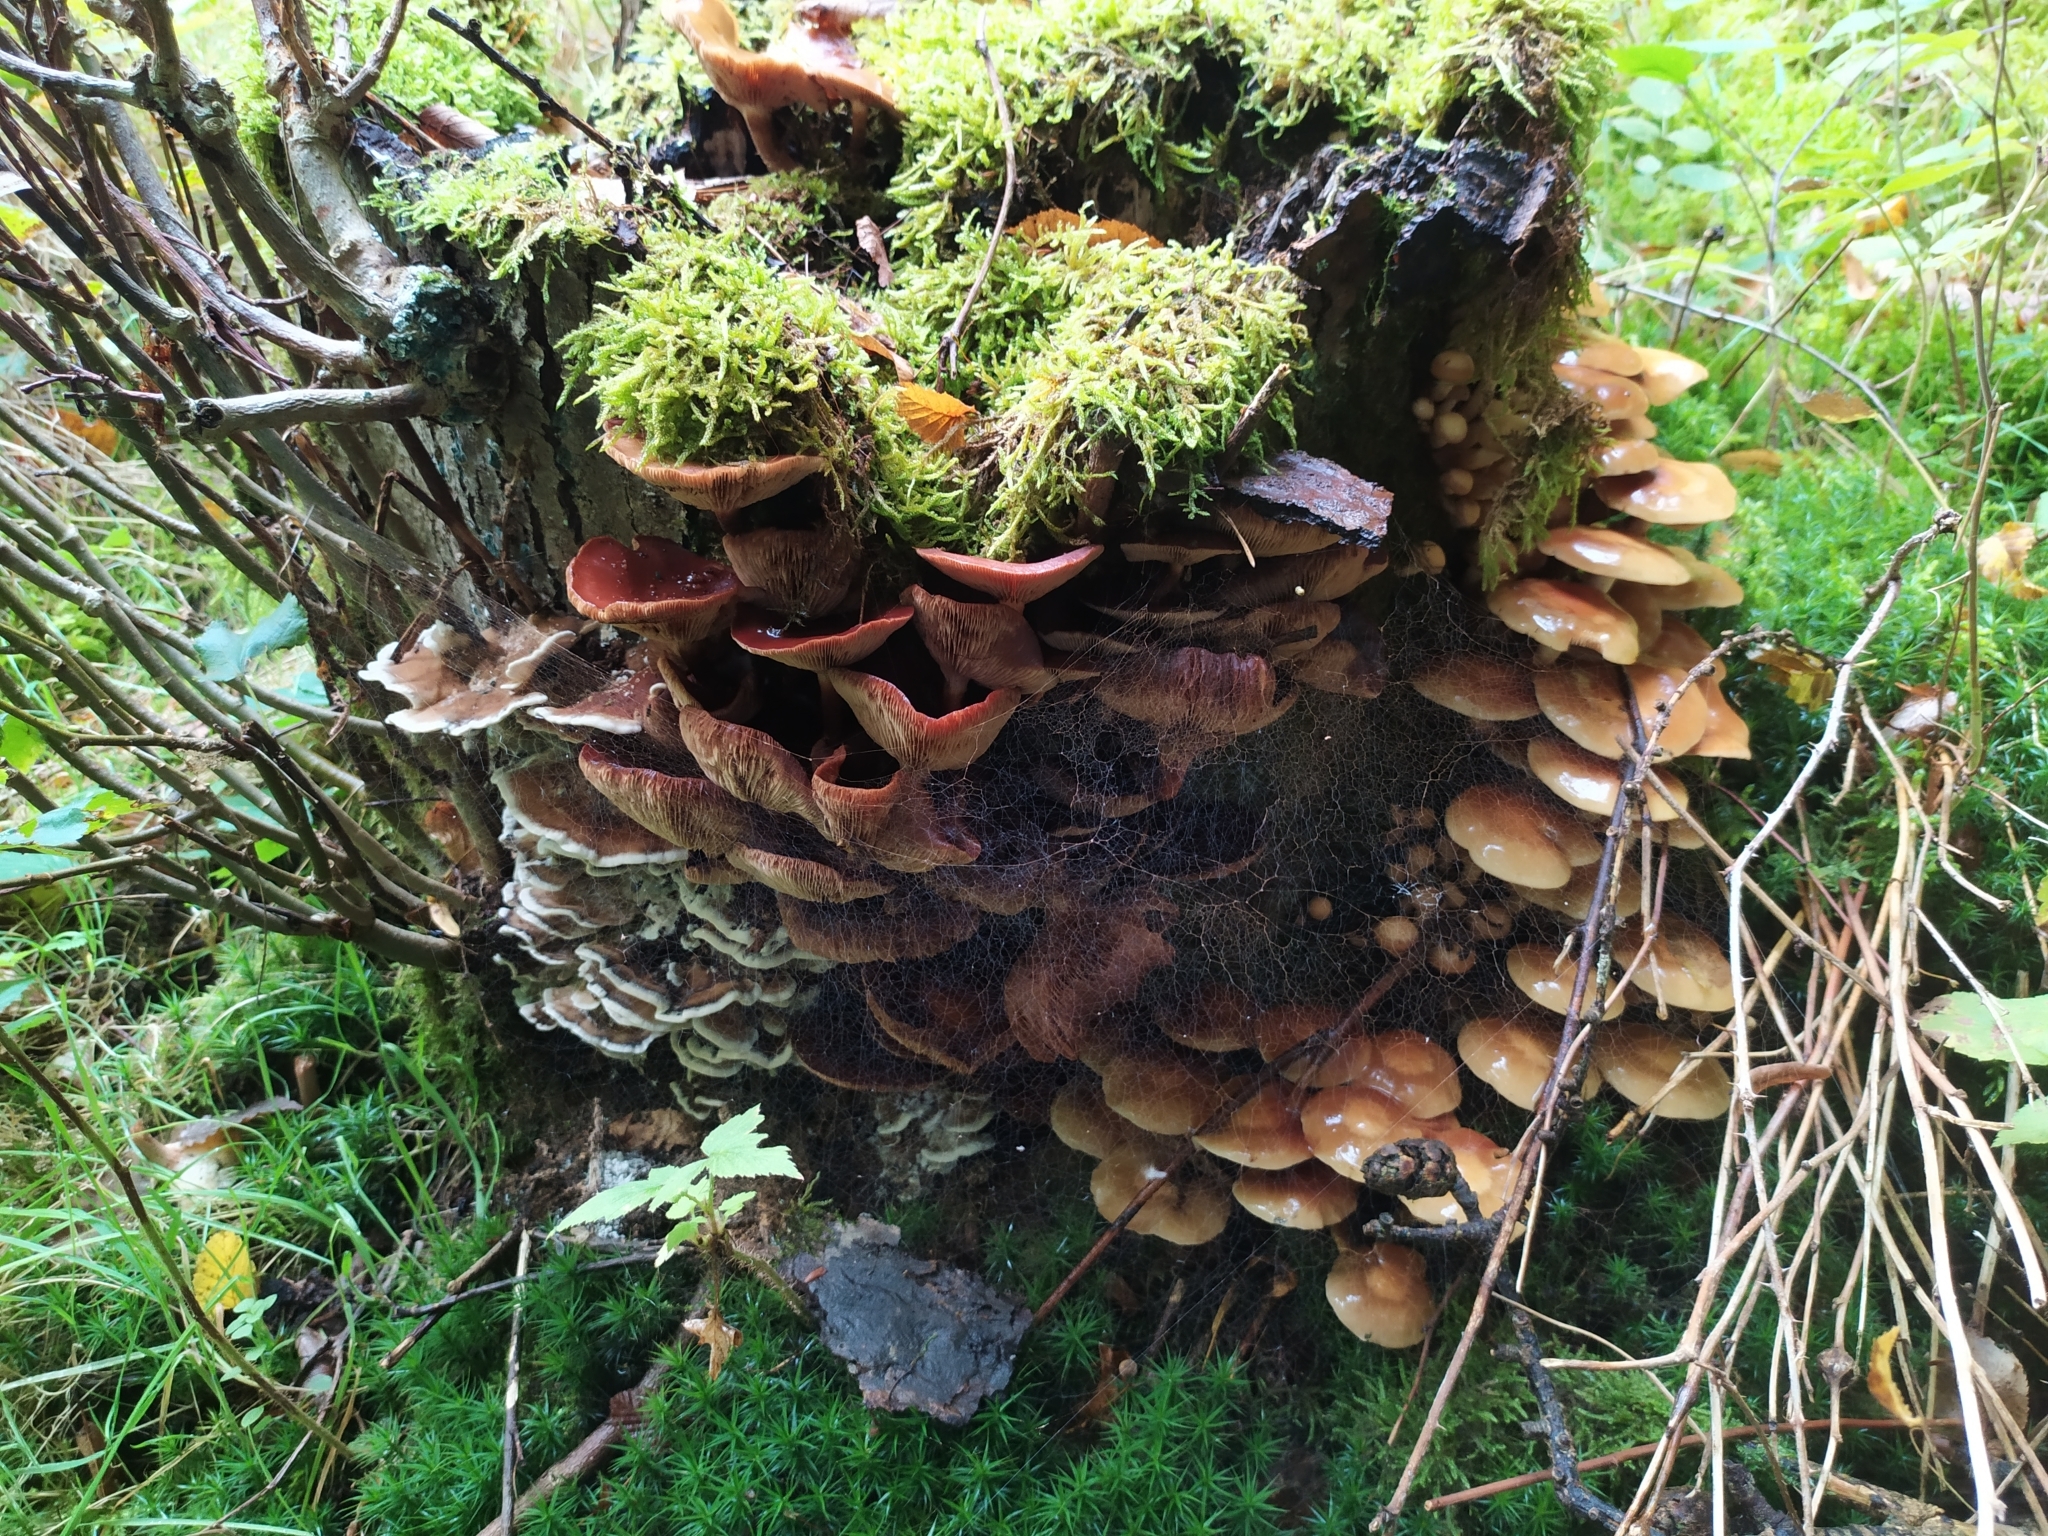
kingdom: Fungi
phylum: Basidiomycota
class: Agaricomycetes
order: Agaricales
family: Strophariaceae
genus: Kuehneromyces
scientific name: Kuehneromyces mutabilis
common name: Sheathed woodtuft
